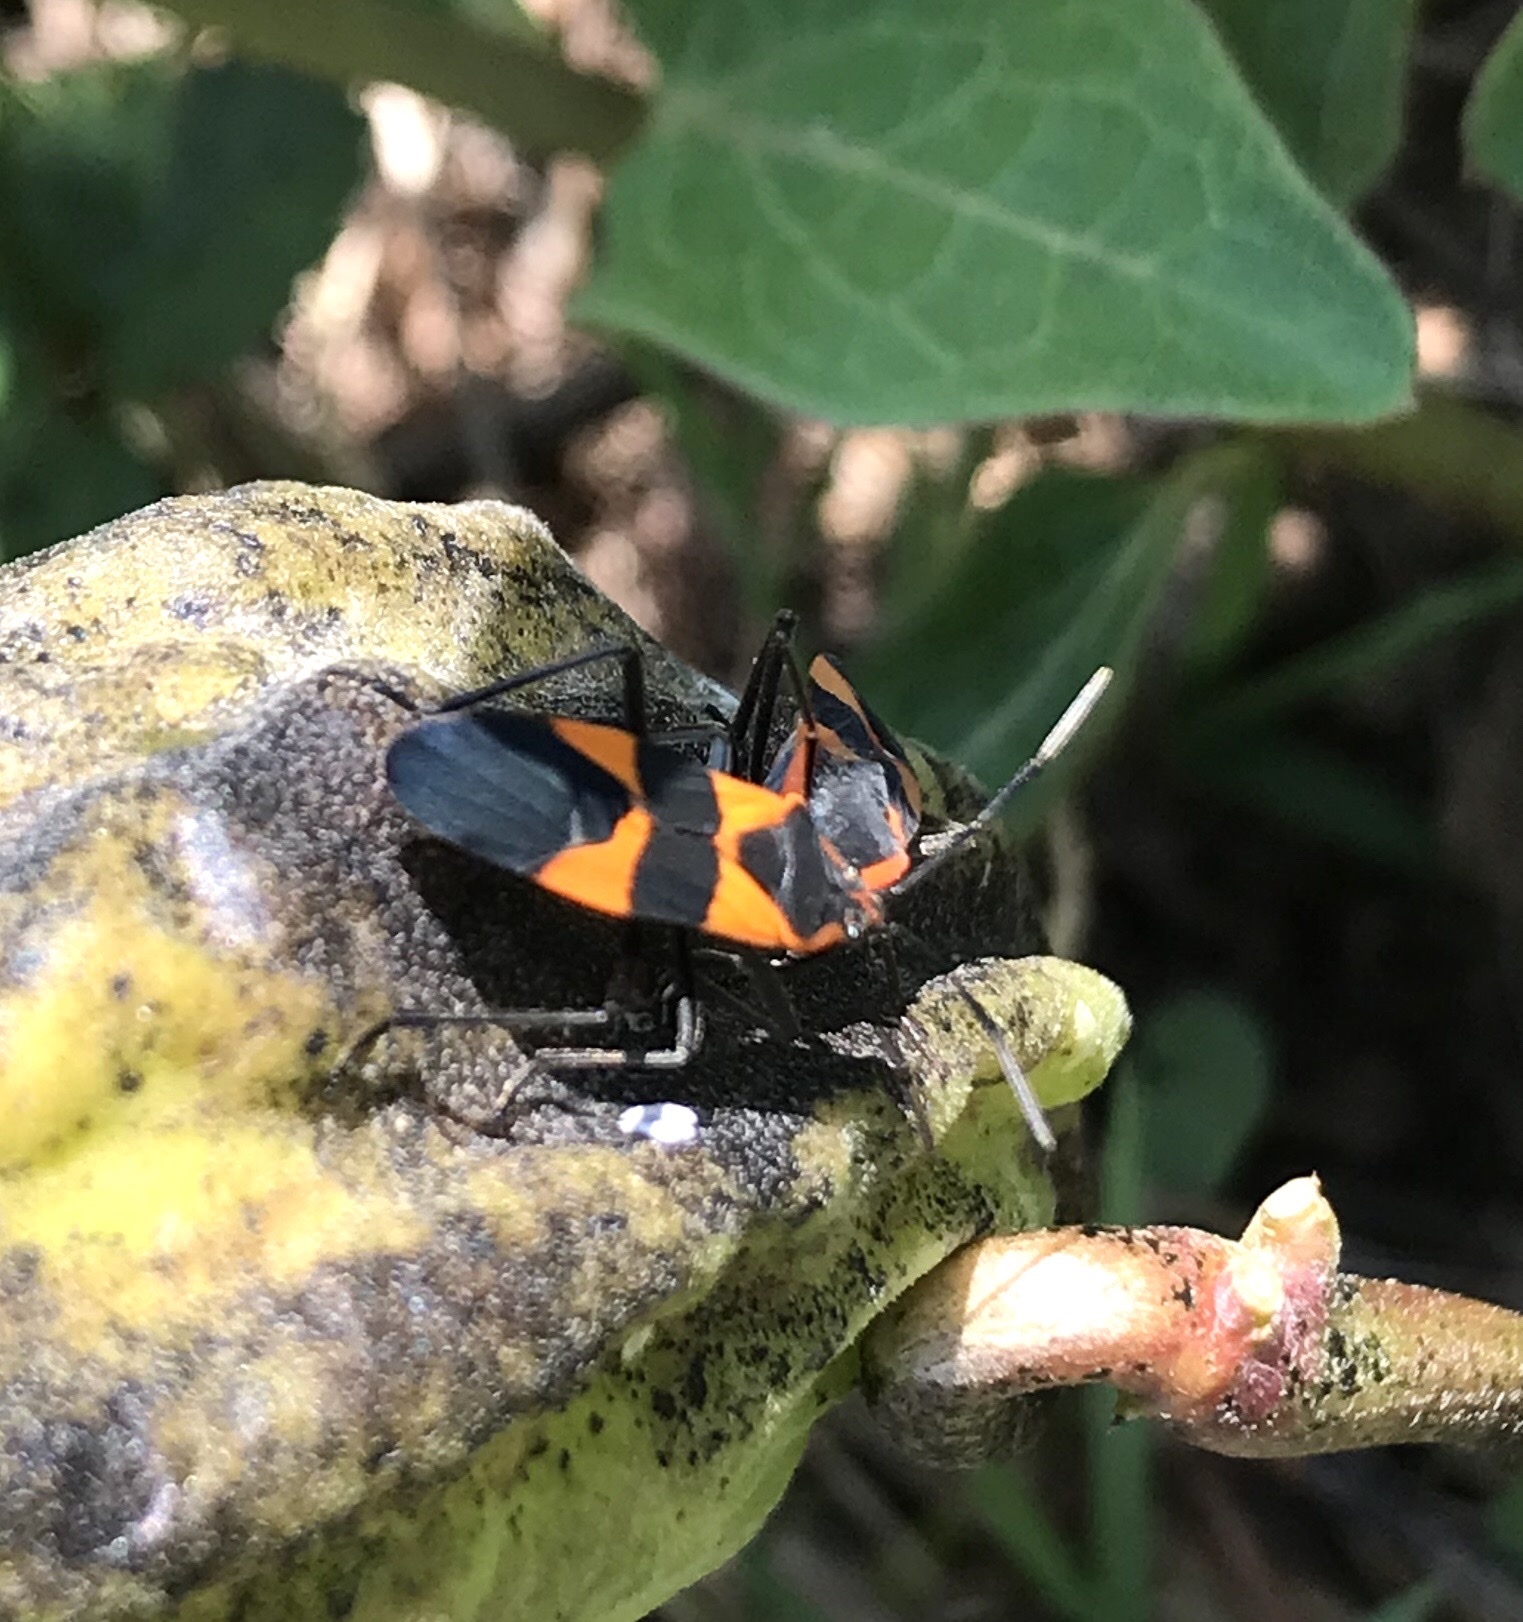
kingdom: Animalia
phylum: Arthropoda
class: Insecta
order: Hemiptera
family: Lygaeidae
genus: Oncopeltus
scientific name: Oncopeltus fasciatus
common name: Large milkweed bug
